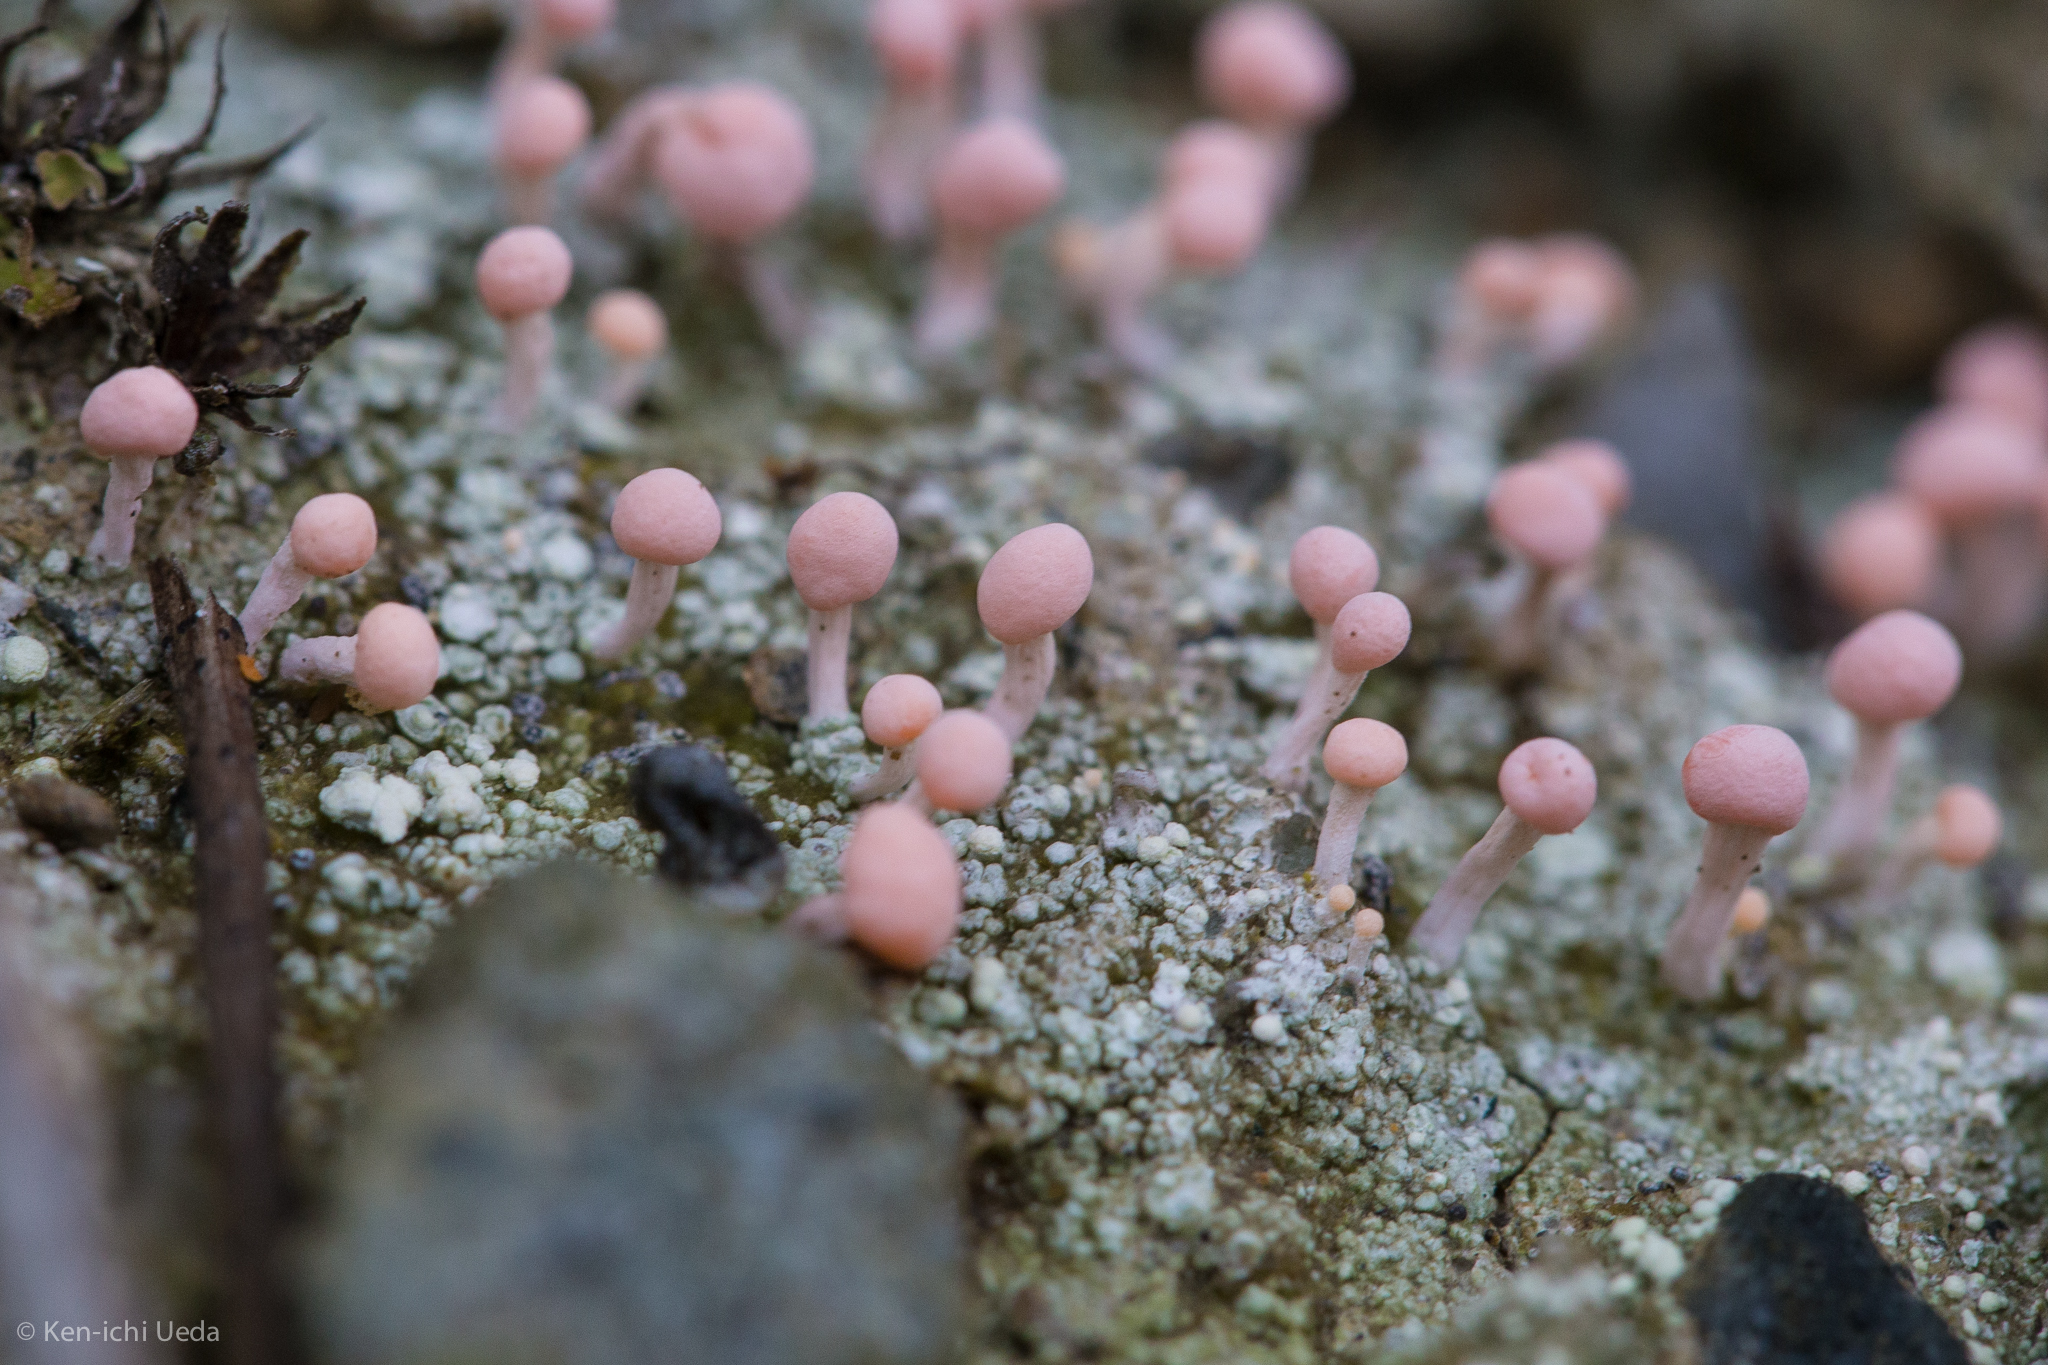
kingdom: Fungi
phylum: Ascomycota
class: Lecanoromycetes
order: Pertusariales
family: Icmadophilaceae
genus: Dibaeis
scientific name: Dibaeis baeomyces
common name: Pink earth lichen
